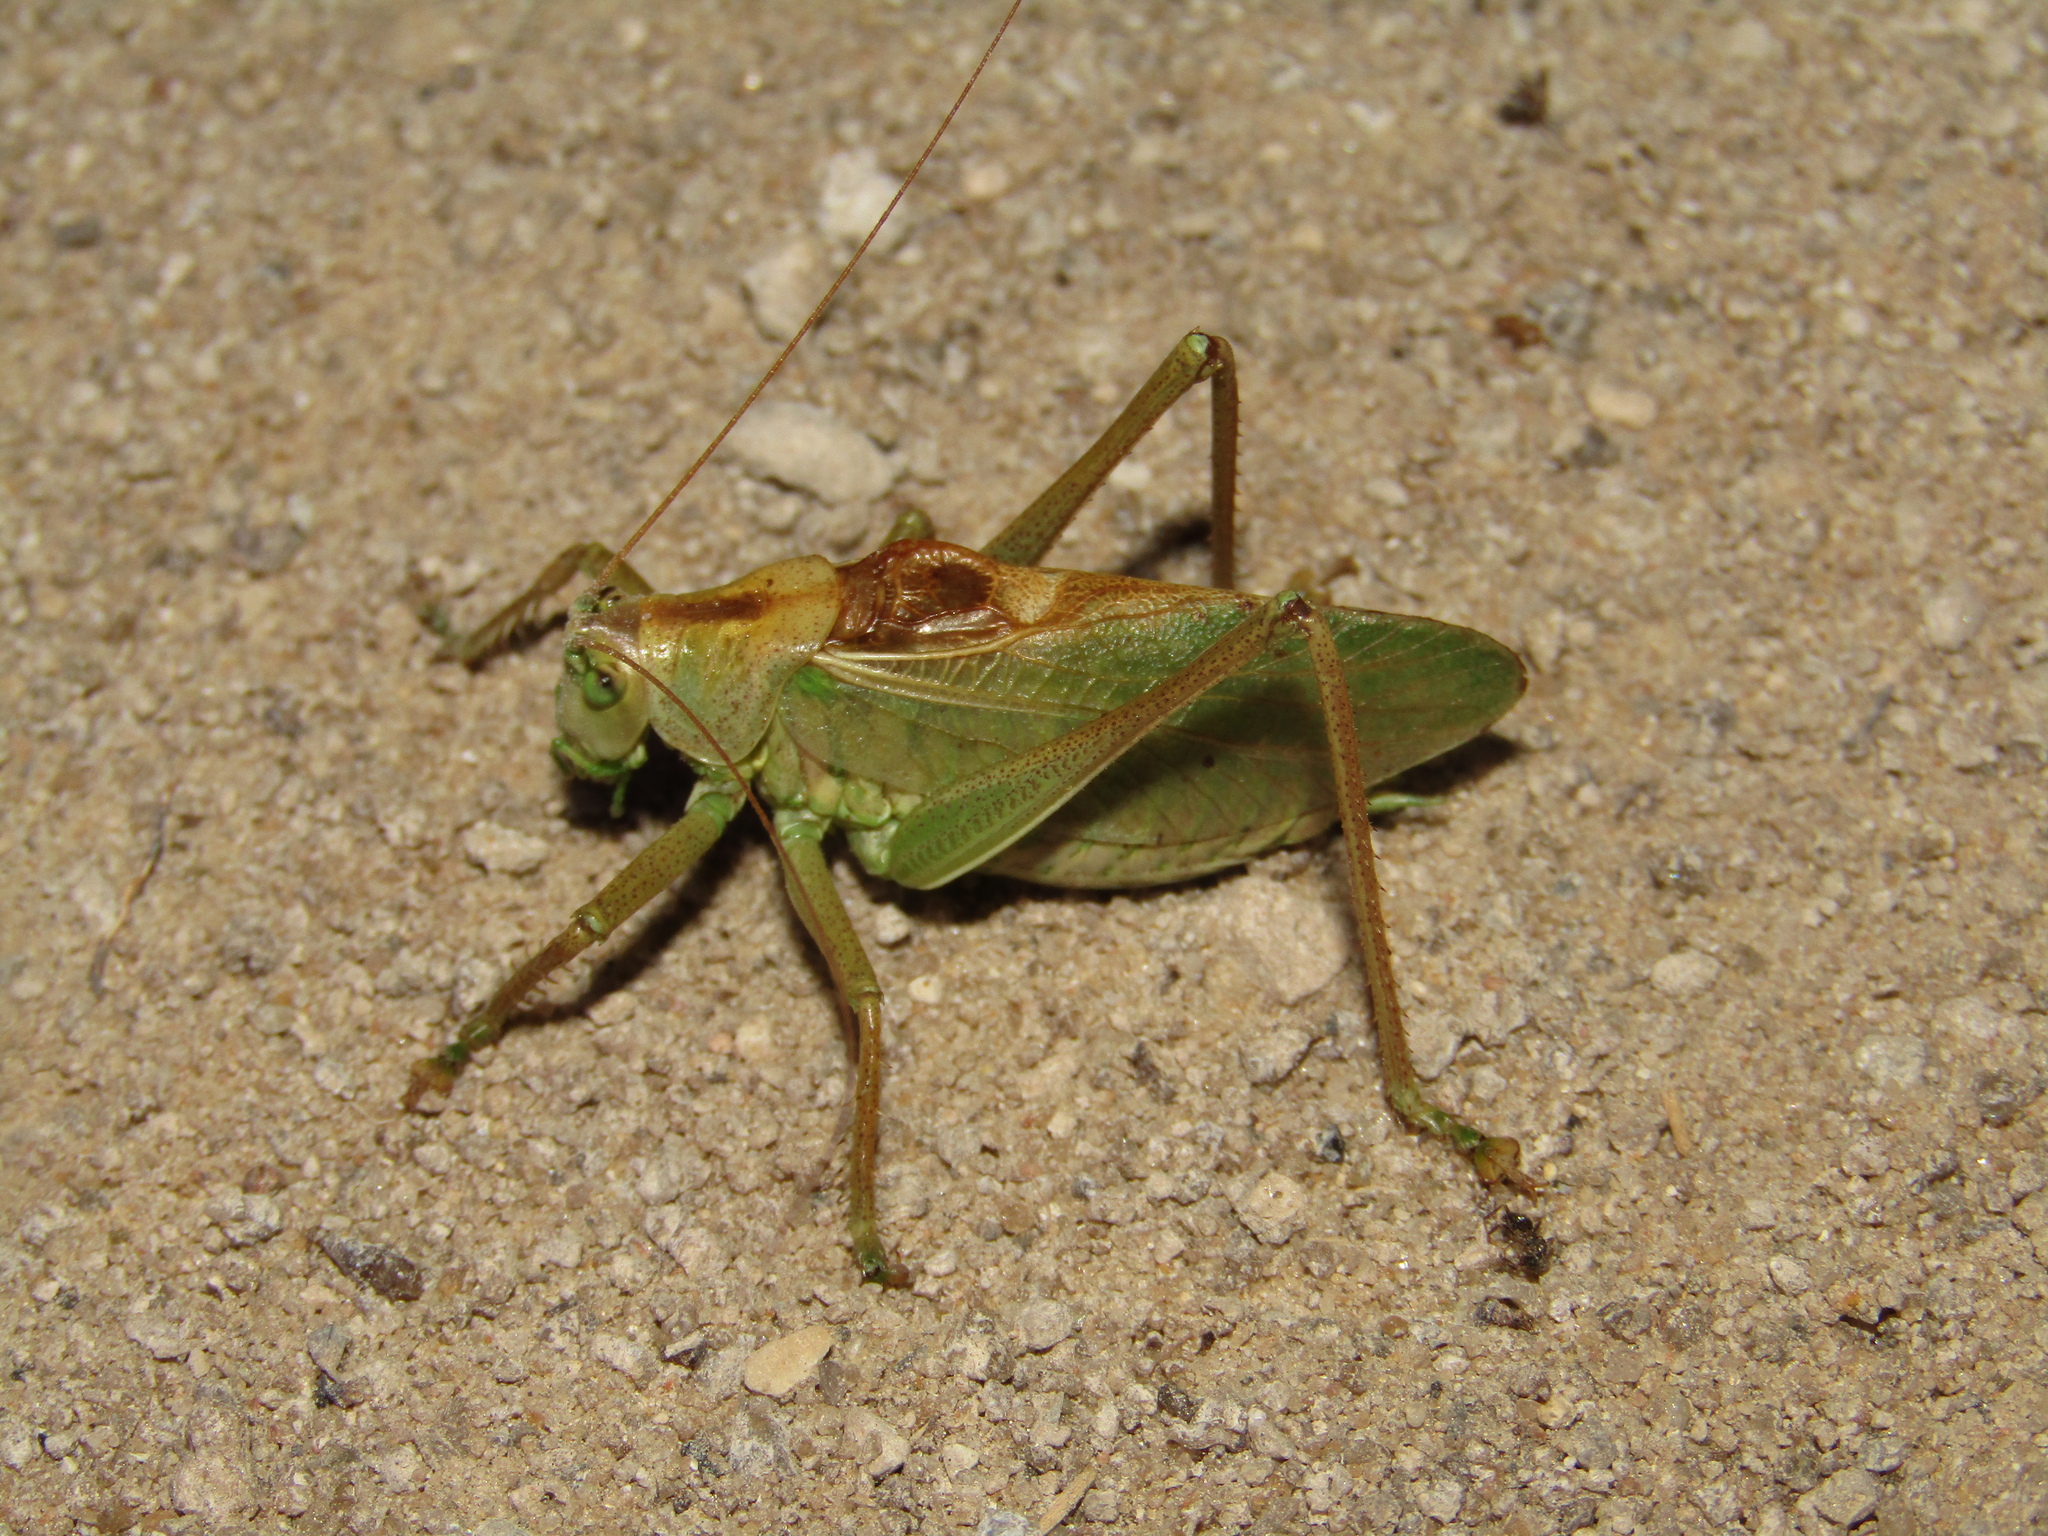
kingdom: Animalia
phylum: Arthropoda
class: Insecta
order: Orthoptera
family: Tettigoniidae
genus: Tettigonia
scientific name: Tettigonia cantans
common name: Upland green bush-cricket
